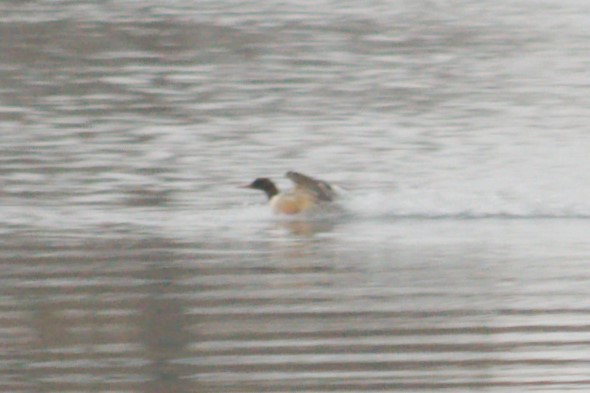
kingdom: Animalia
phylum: Chordata
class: Aves
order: Anseriformes
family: Anatidae
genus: Mergus
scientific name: Mergus merganser
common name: Common merganser
